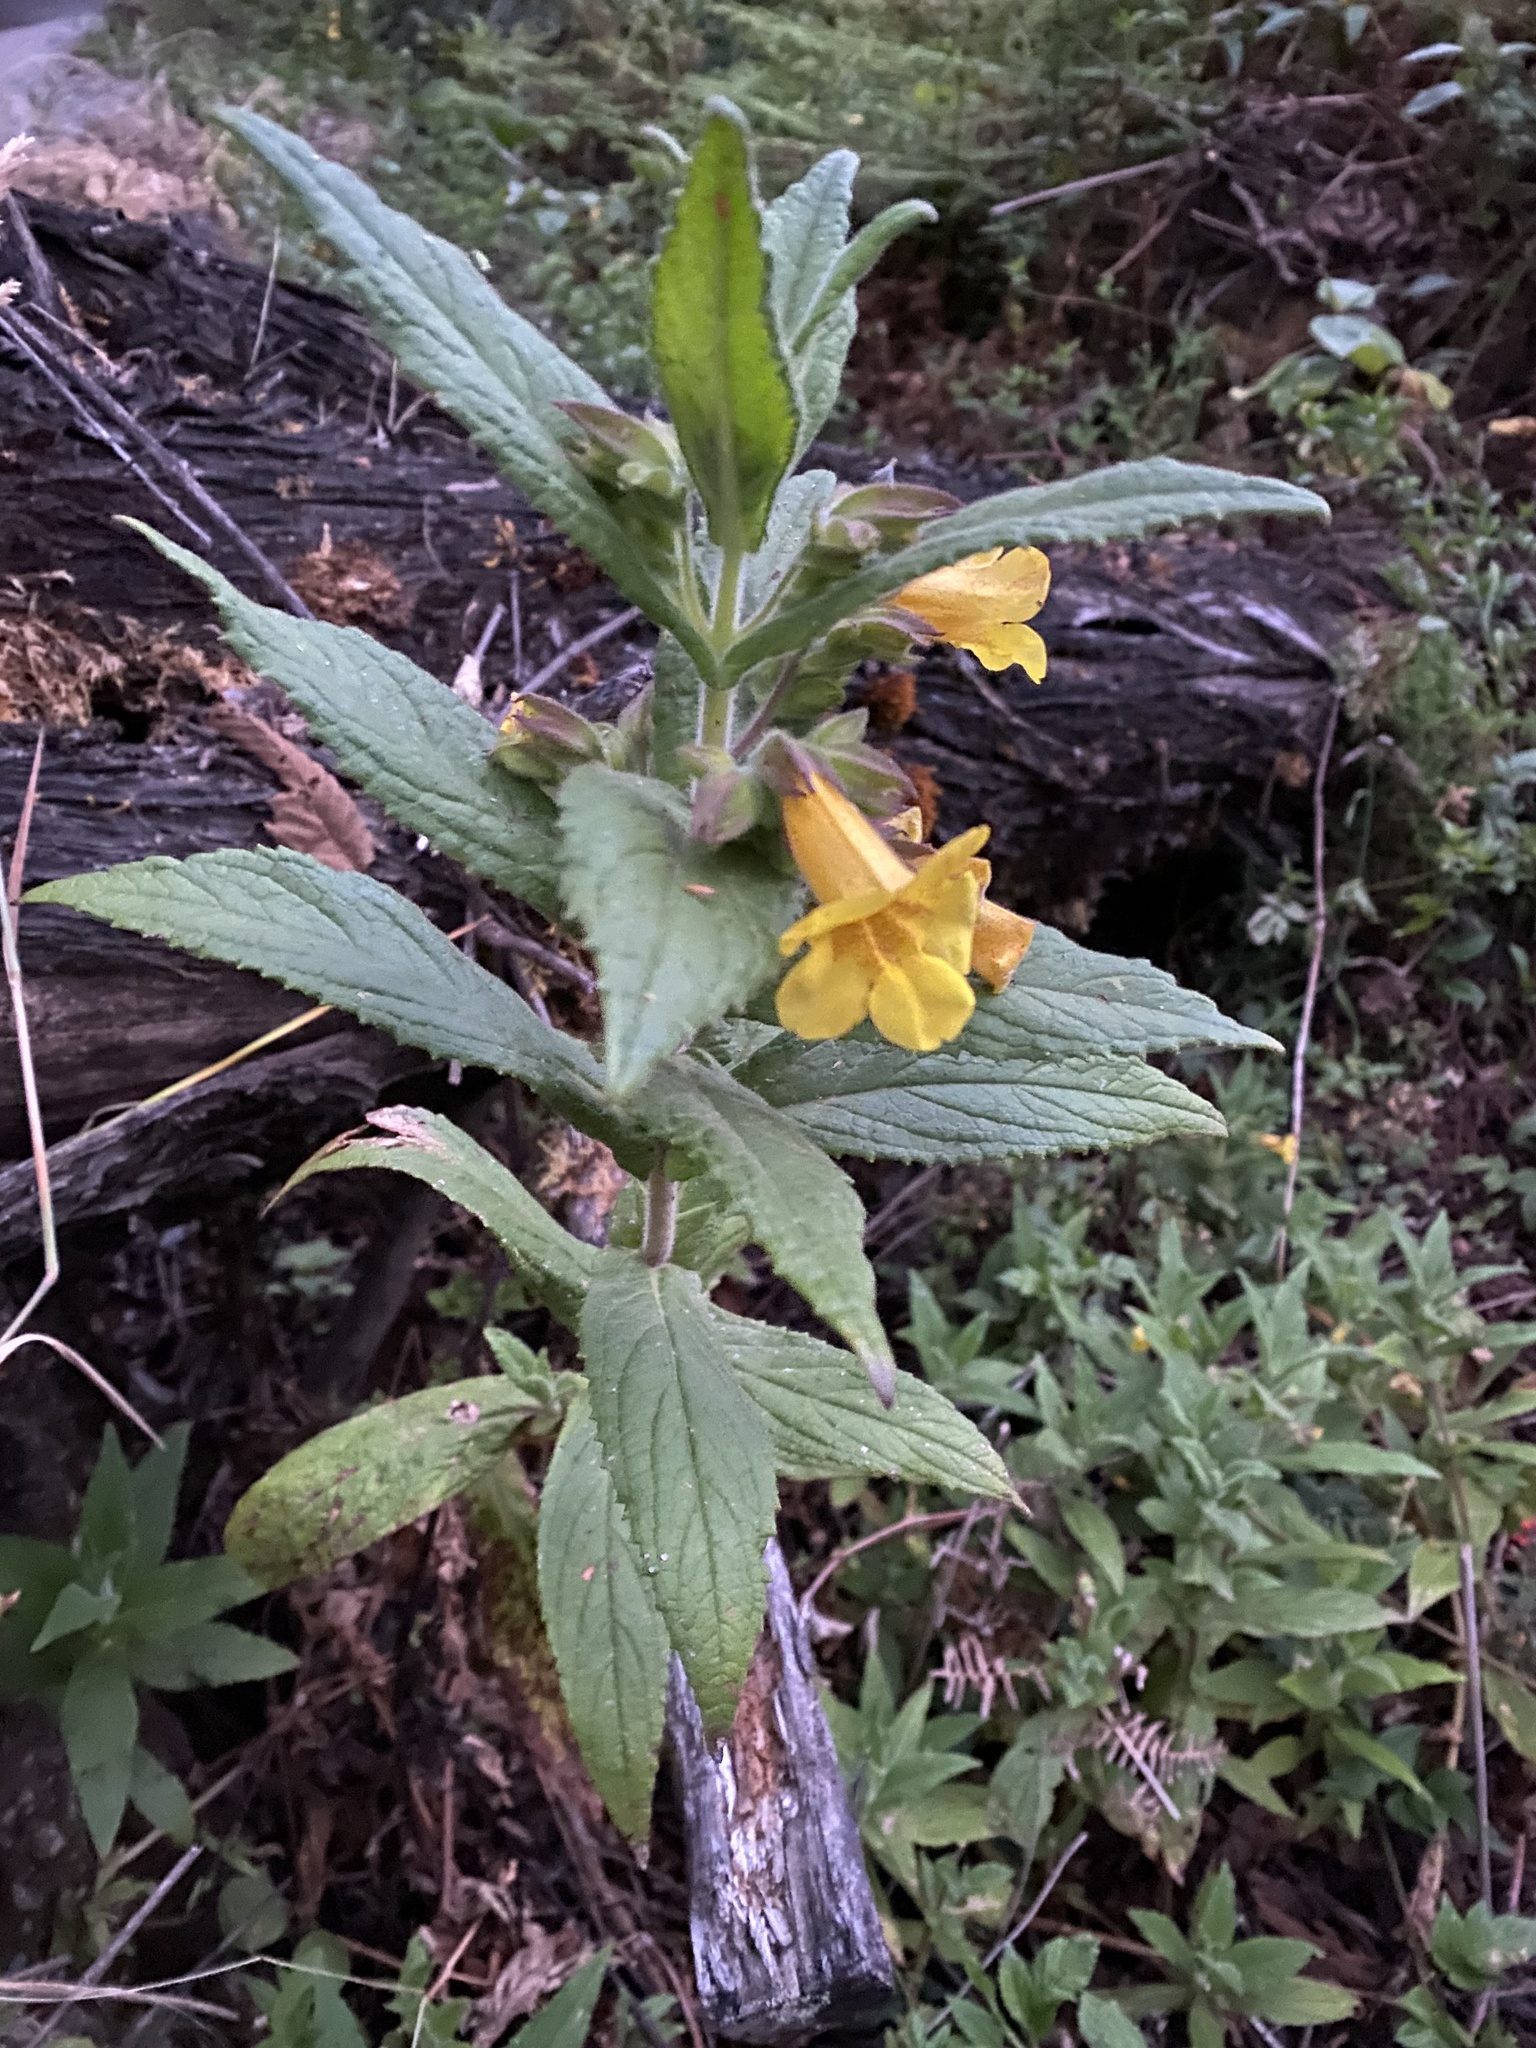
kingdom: Plantae
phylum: Tracheophyta
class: Magnoliopsida
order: Lamiales
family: Phrymaceae
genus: Hemichaena
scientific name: Hemichaena fruticosa
